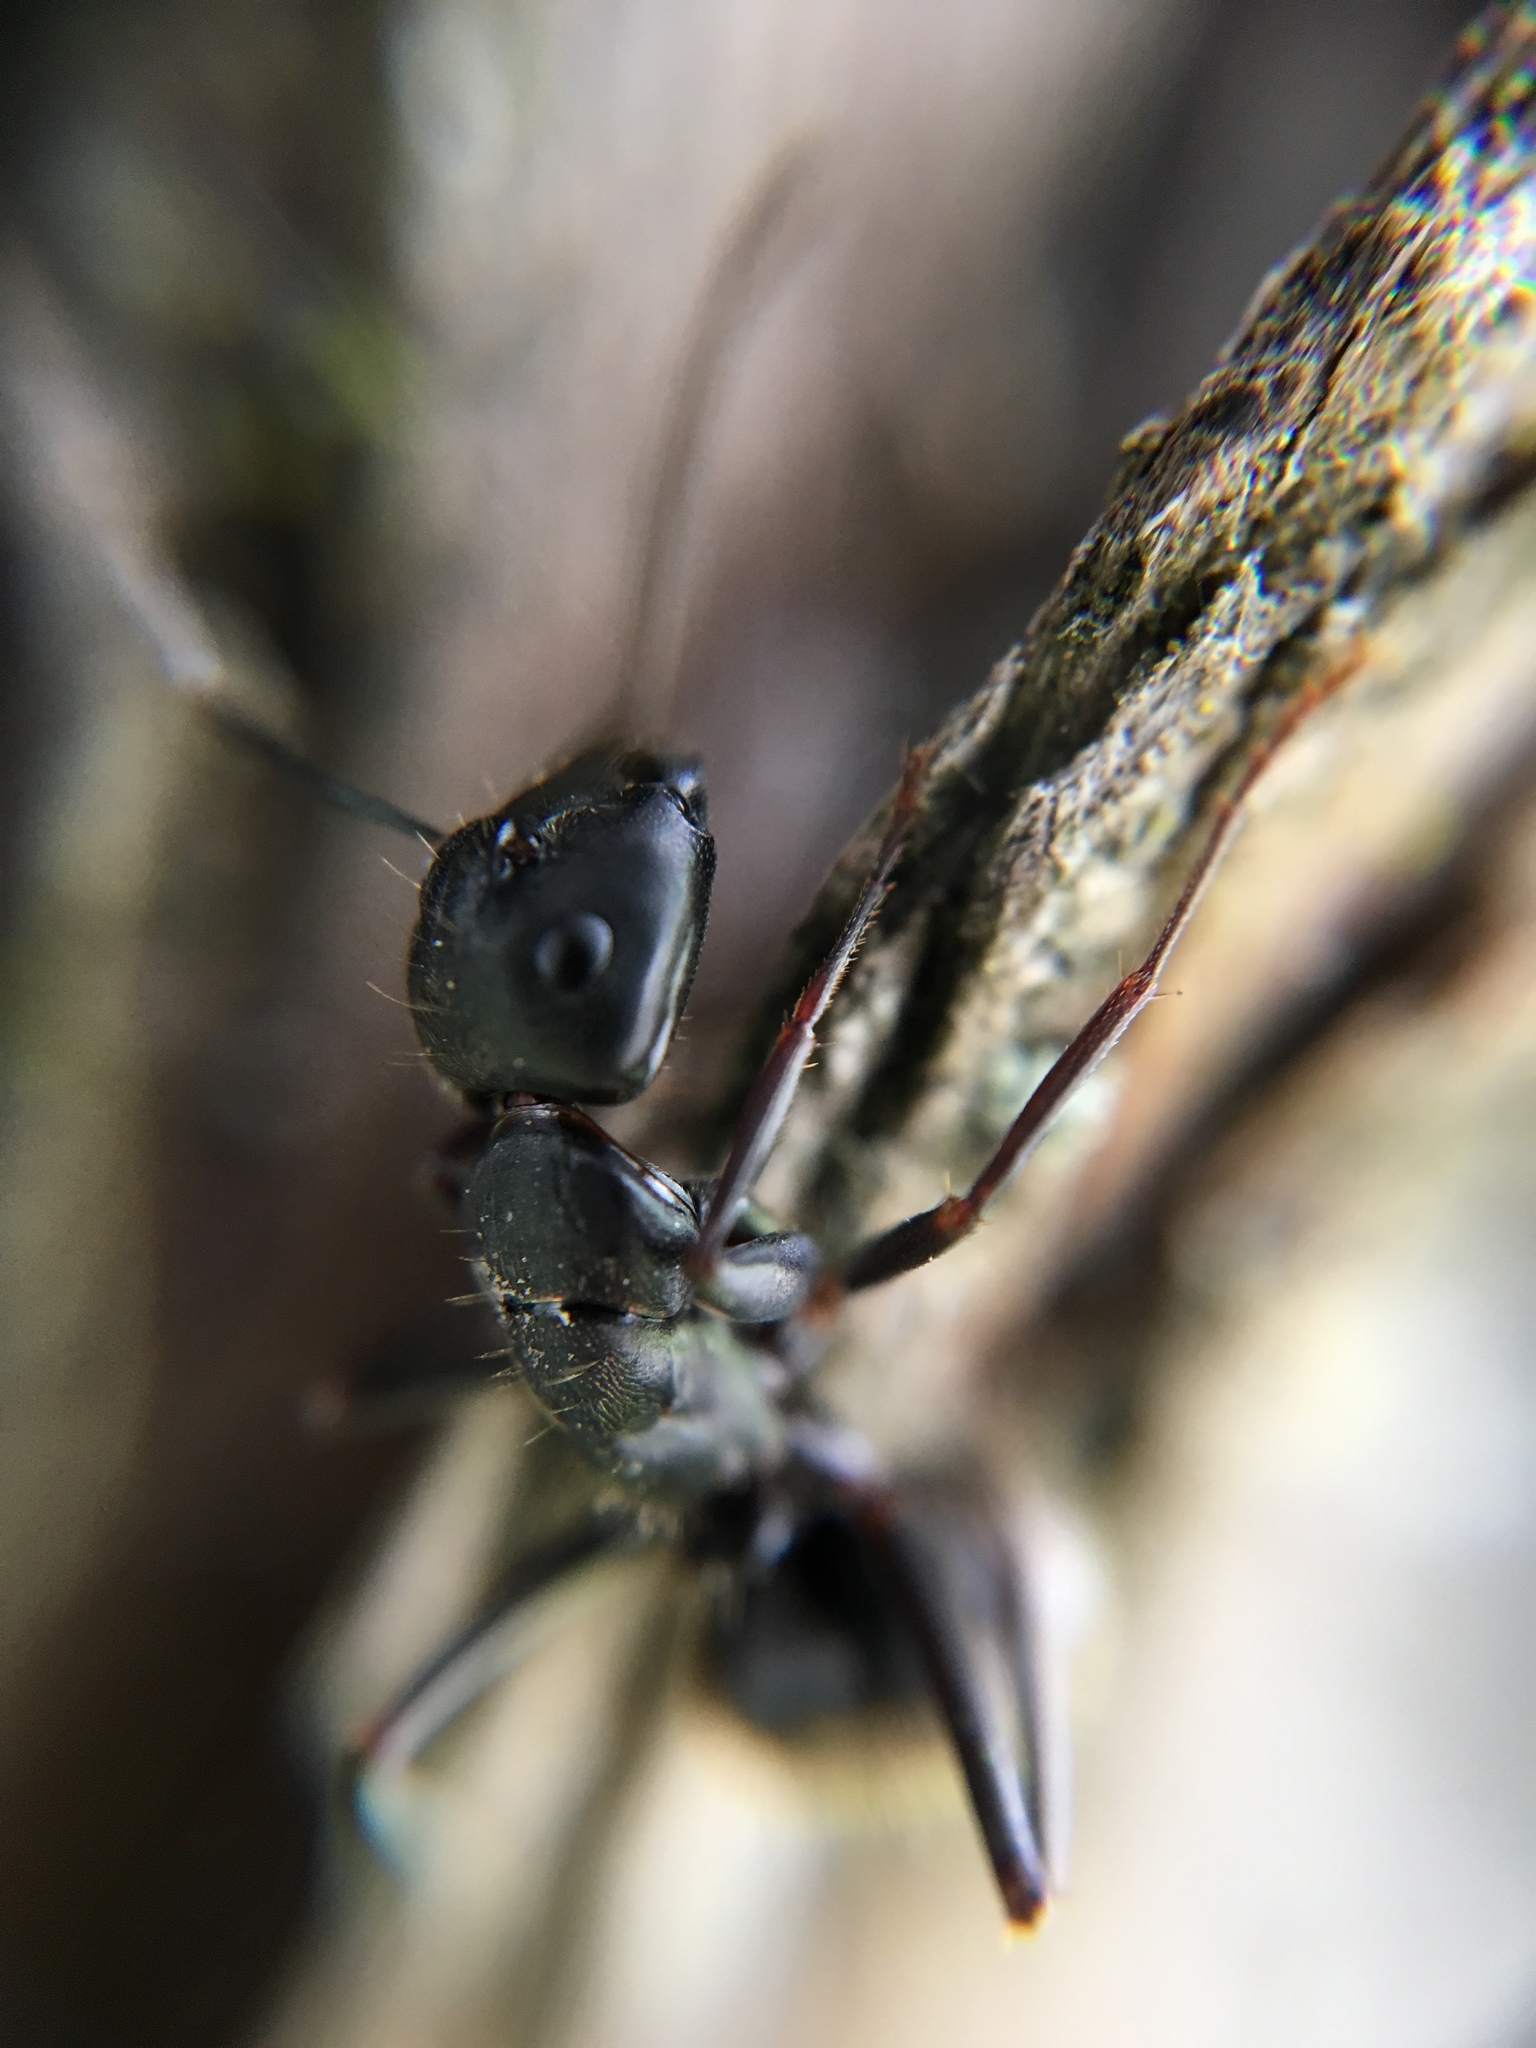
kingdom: Animalia
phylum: Arthropoda
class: Insecta
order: Hymenoptera
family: Formicidae
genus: Camponotus
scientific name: Camponotus pennsylvanicus
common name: Black carpenter ant
